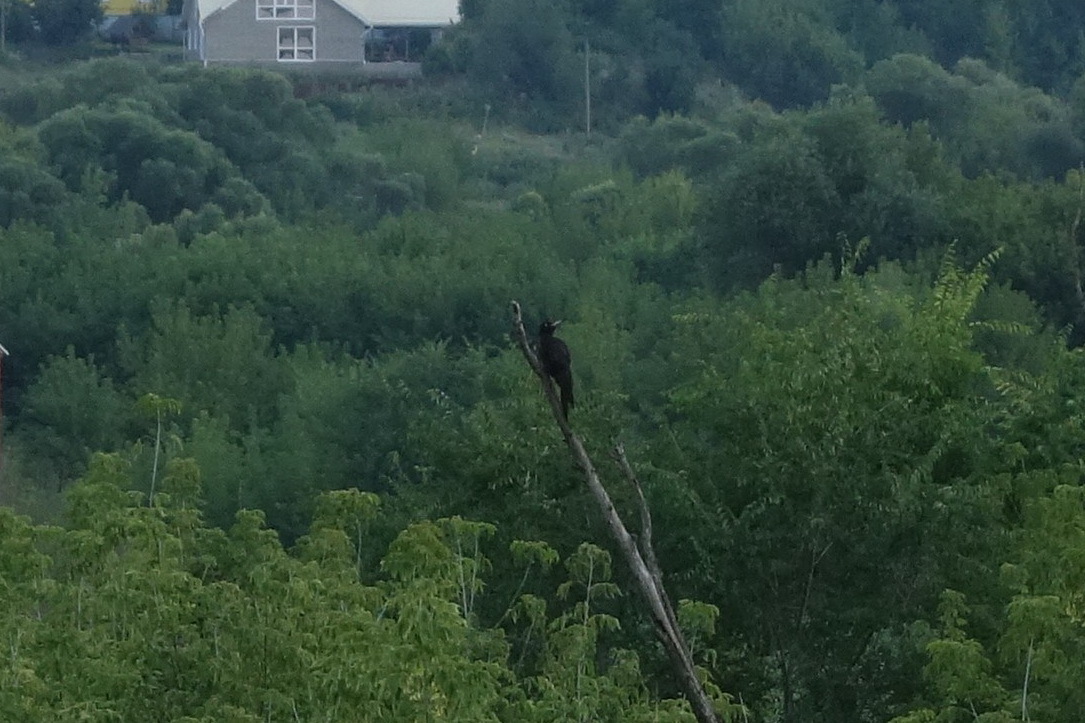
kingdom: Animalia
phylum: Chordata
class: Aves
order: Piciformes
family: Picidae
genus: Dryocopus
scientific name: Dryocopus martius
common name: Black woodpecker
